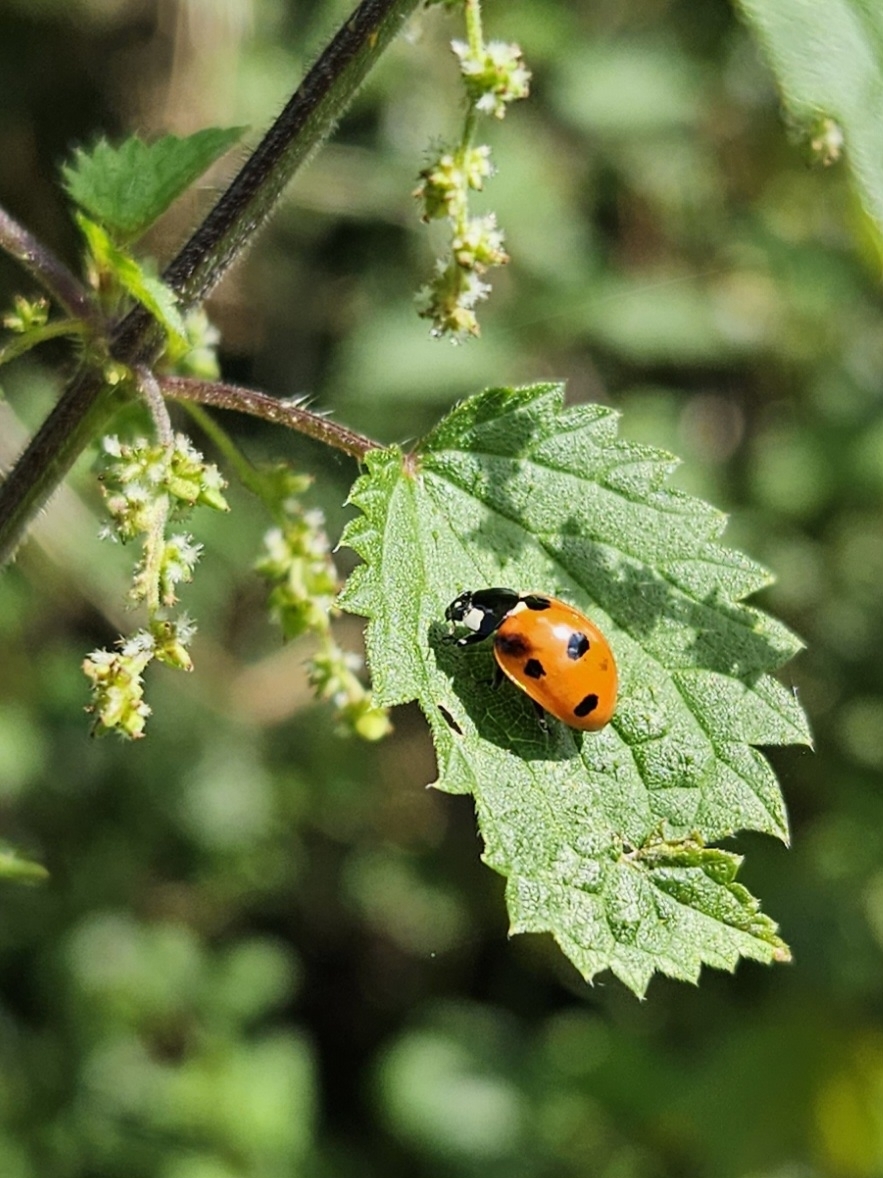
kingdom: Animalia
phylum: Arthropoda
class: Insecta
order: Coleoptera
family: Coccinellidae
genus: Coccinella
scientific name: Coccinella septempunctata
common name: Sevenspotted lady beetle
